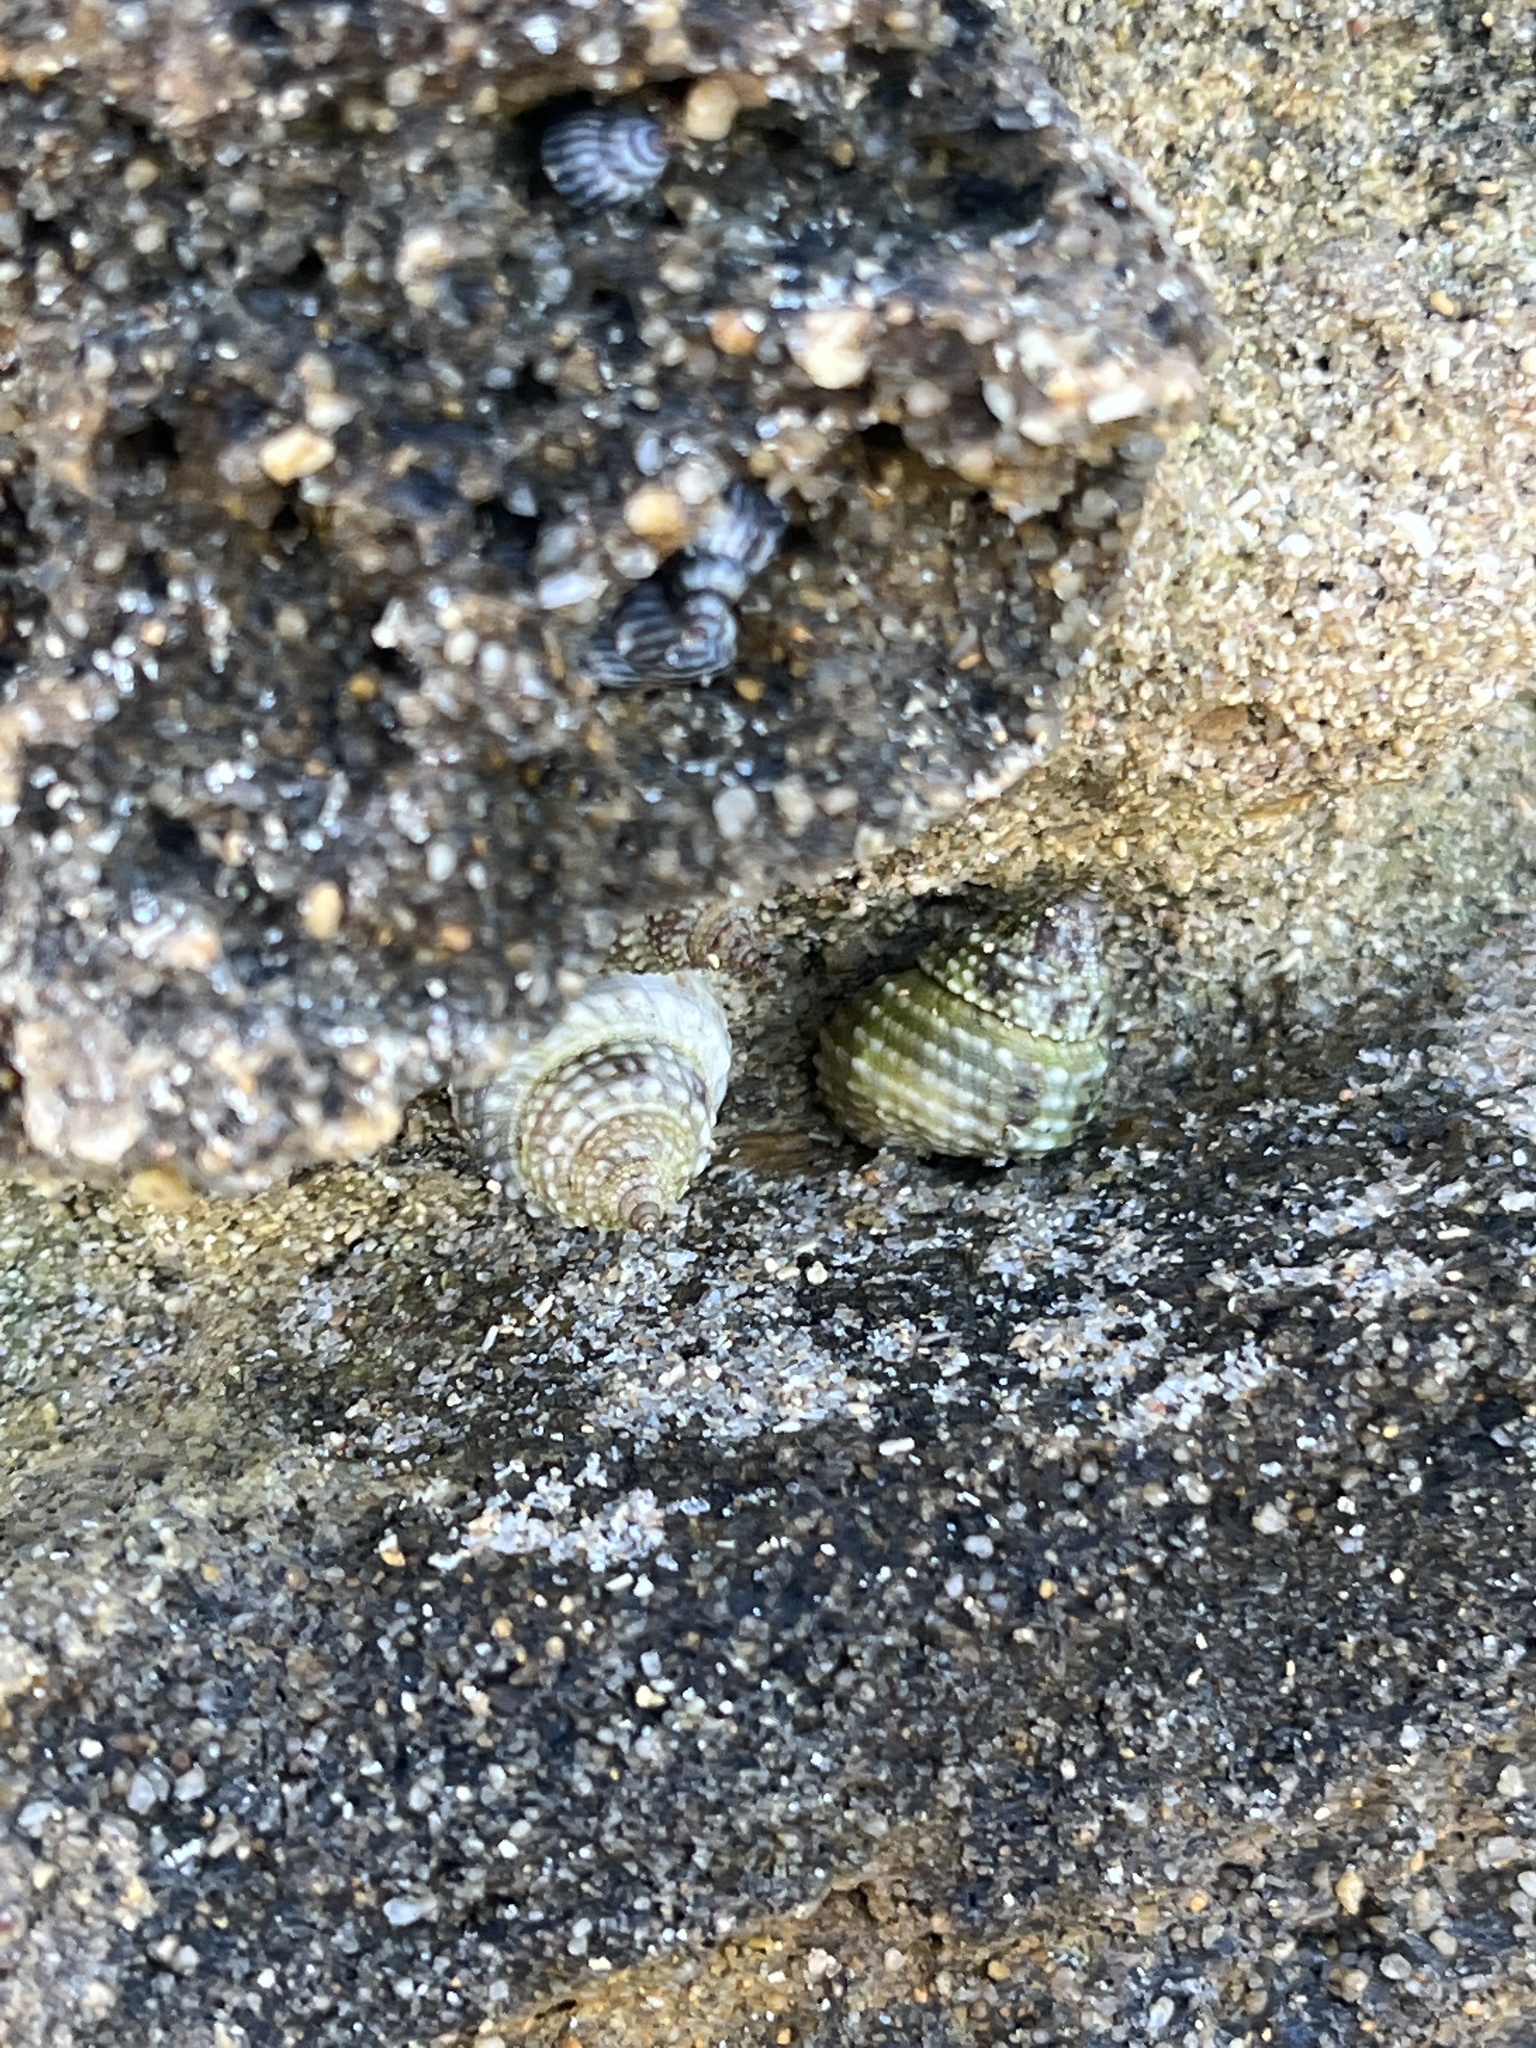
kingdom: Animalia
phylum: Mollusca
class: Gastropoda
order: Littorinimorpha
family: Littorinidae
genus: Cenchritis
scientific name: Cenchritis muricatus
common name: Beaded periwinkle
